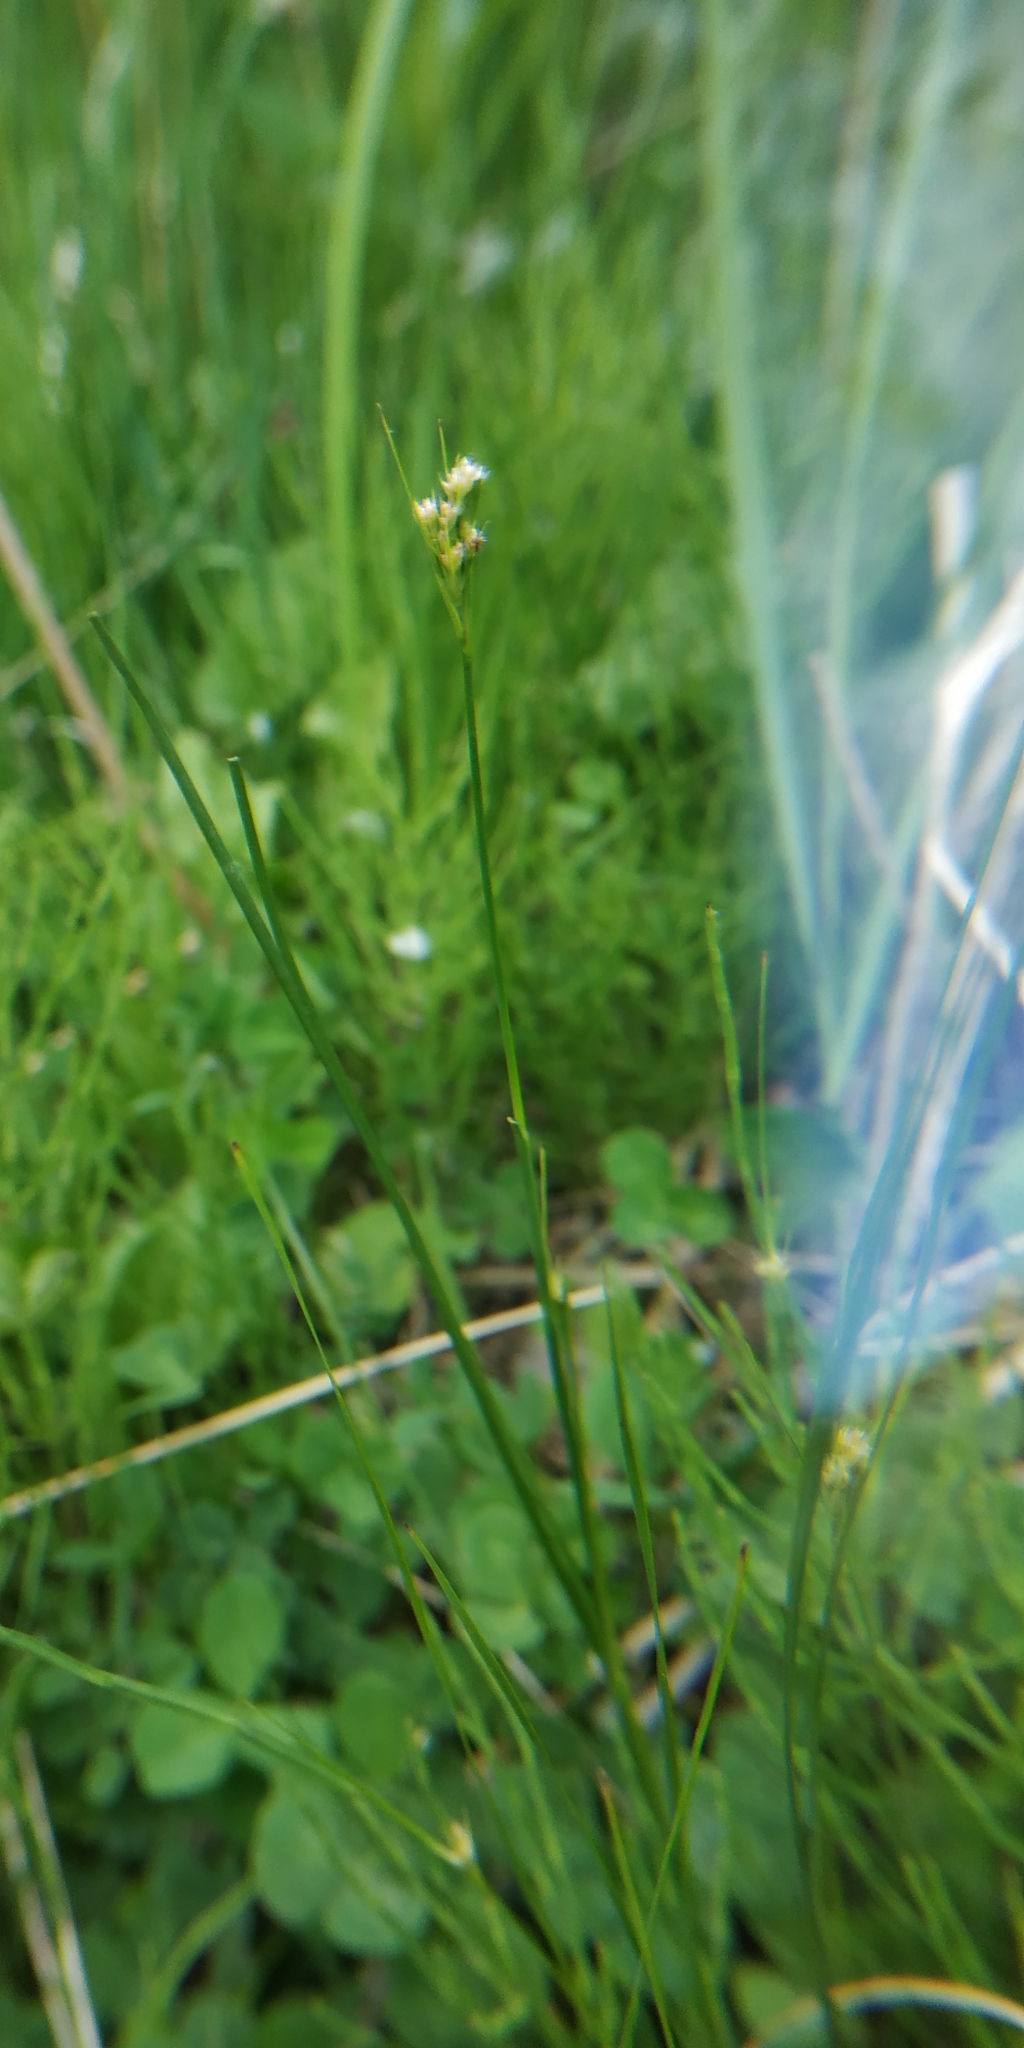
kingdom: Plantae
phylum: Tracheophyta
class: Liliopsida
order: Poales
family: Juncaceae
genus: Luzula
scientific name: Luzula pilosa
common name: Hairy wood-rush
